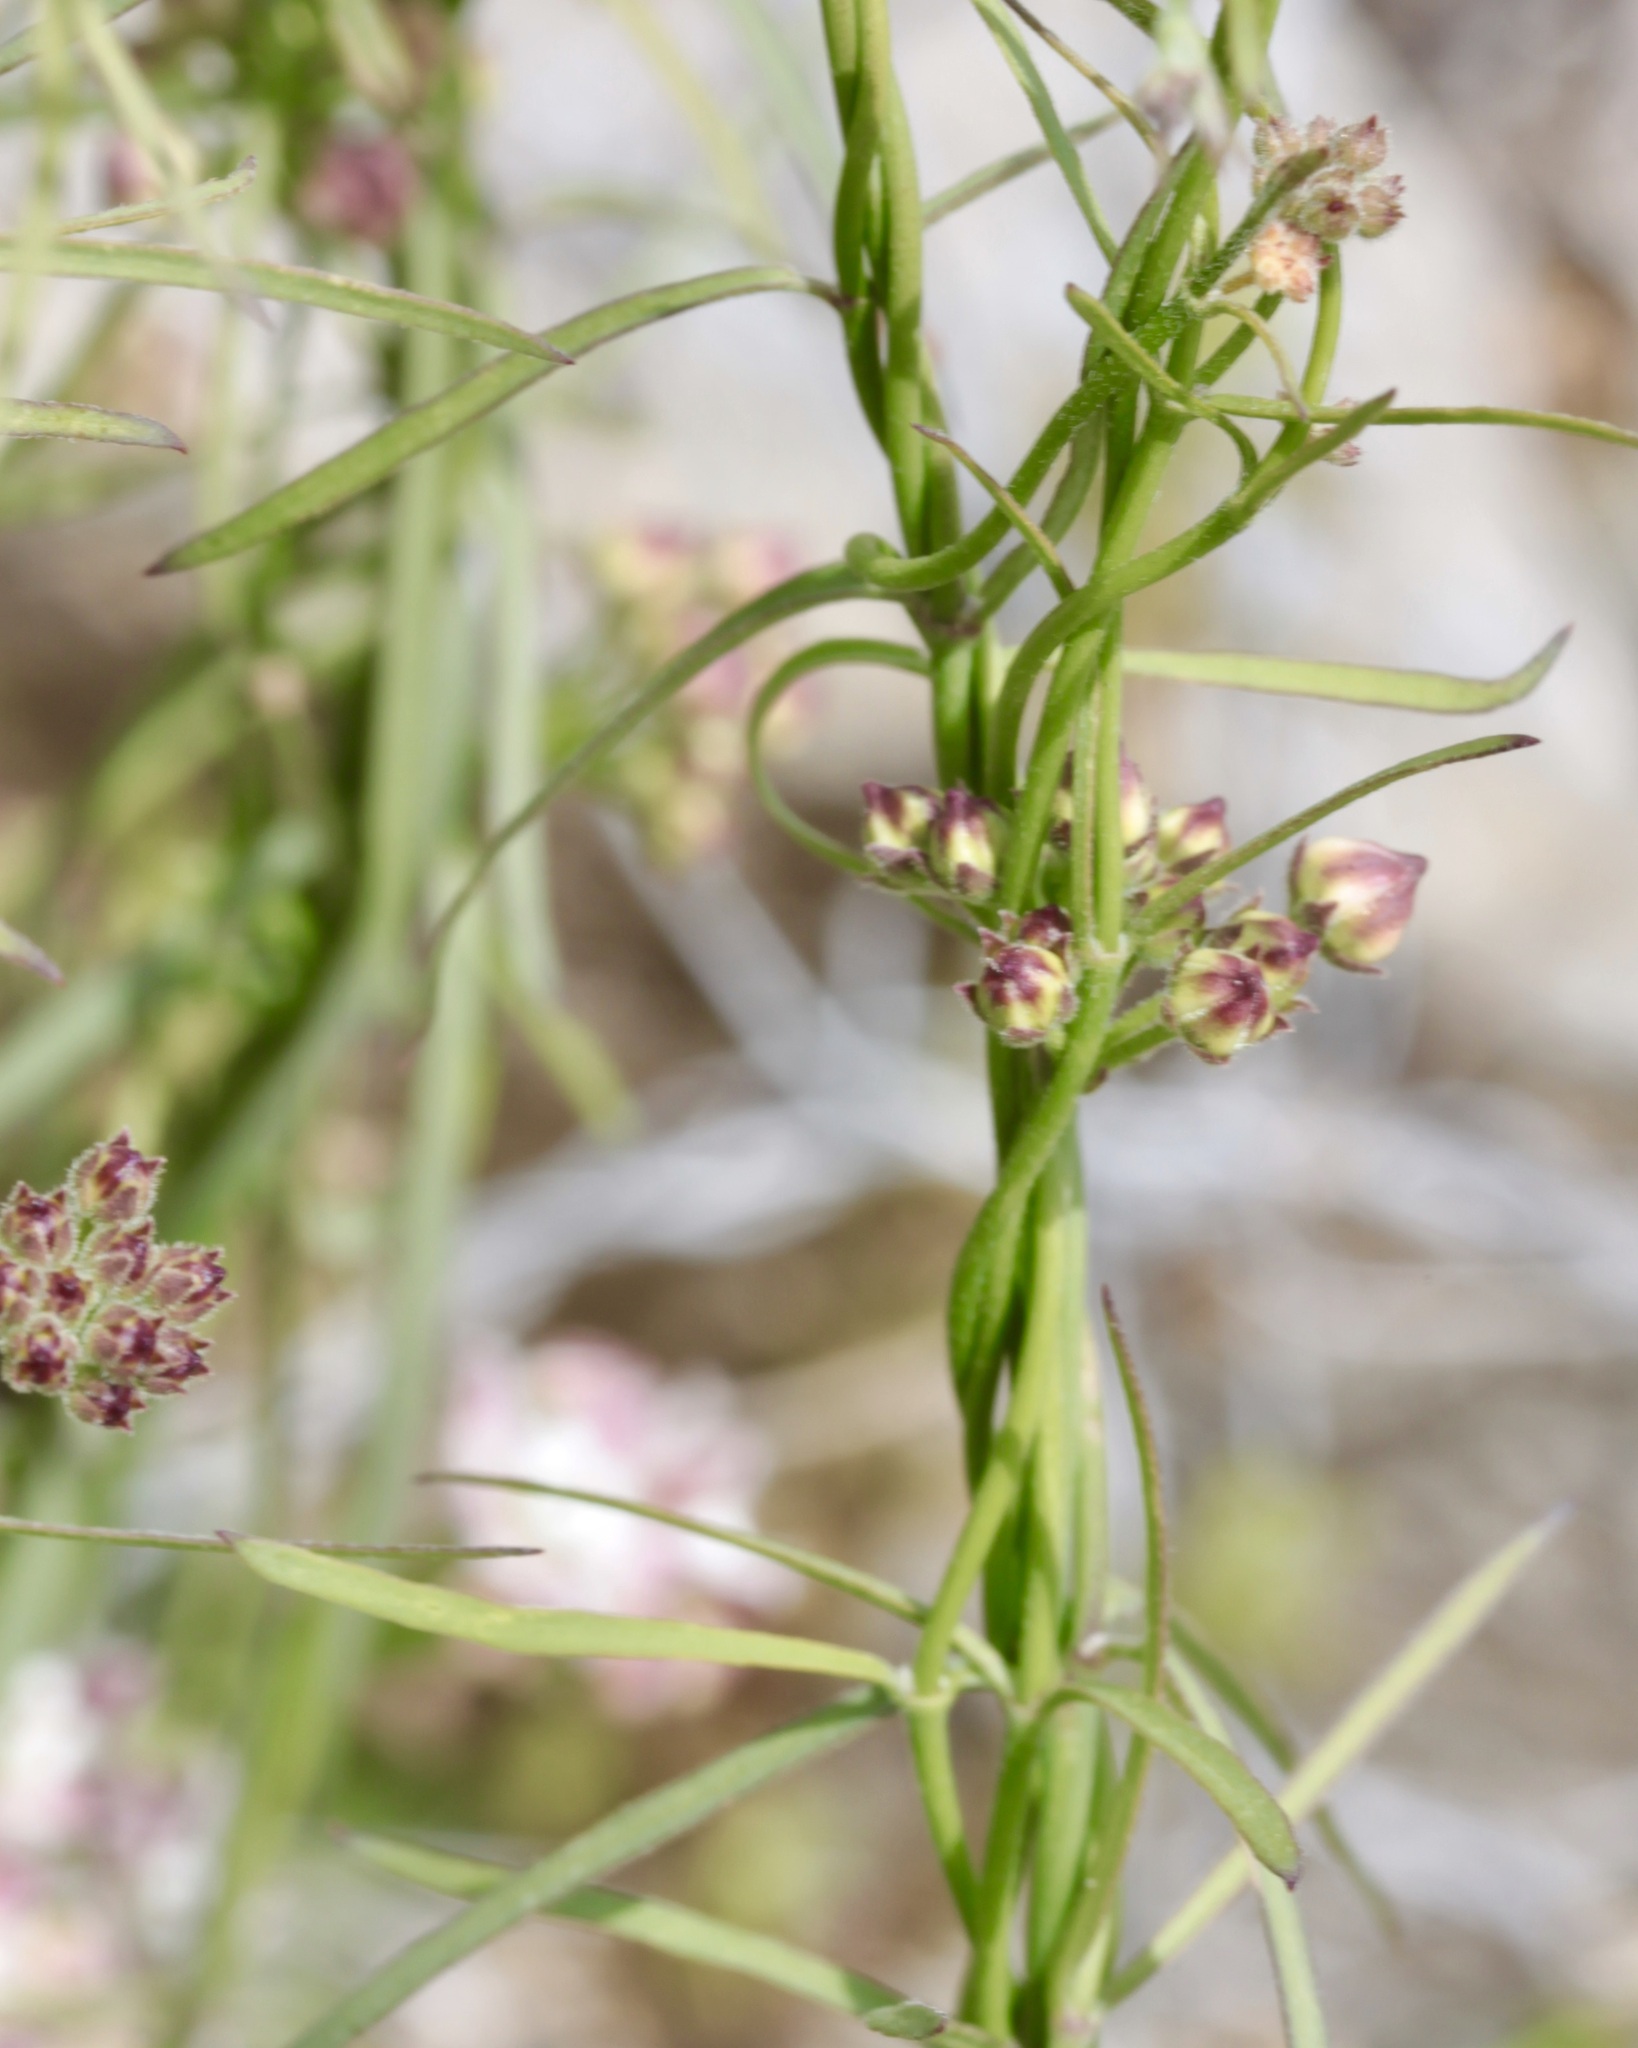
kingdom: Plantae
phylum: Tracheophyta
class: Magnoliopsida
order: Gentianales
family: Apocynaceae
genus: Funastrum
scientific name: Funastrum heterophyllum
